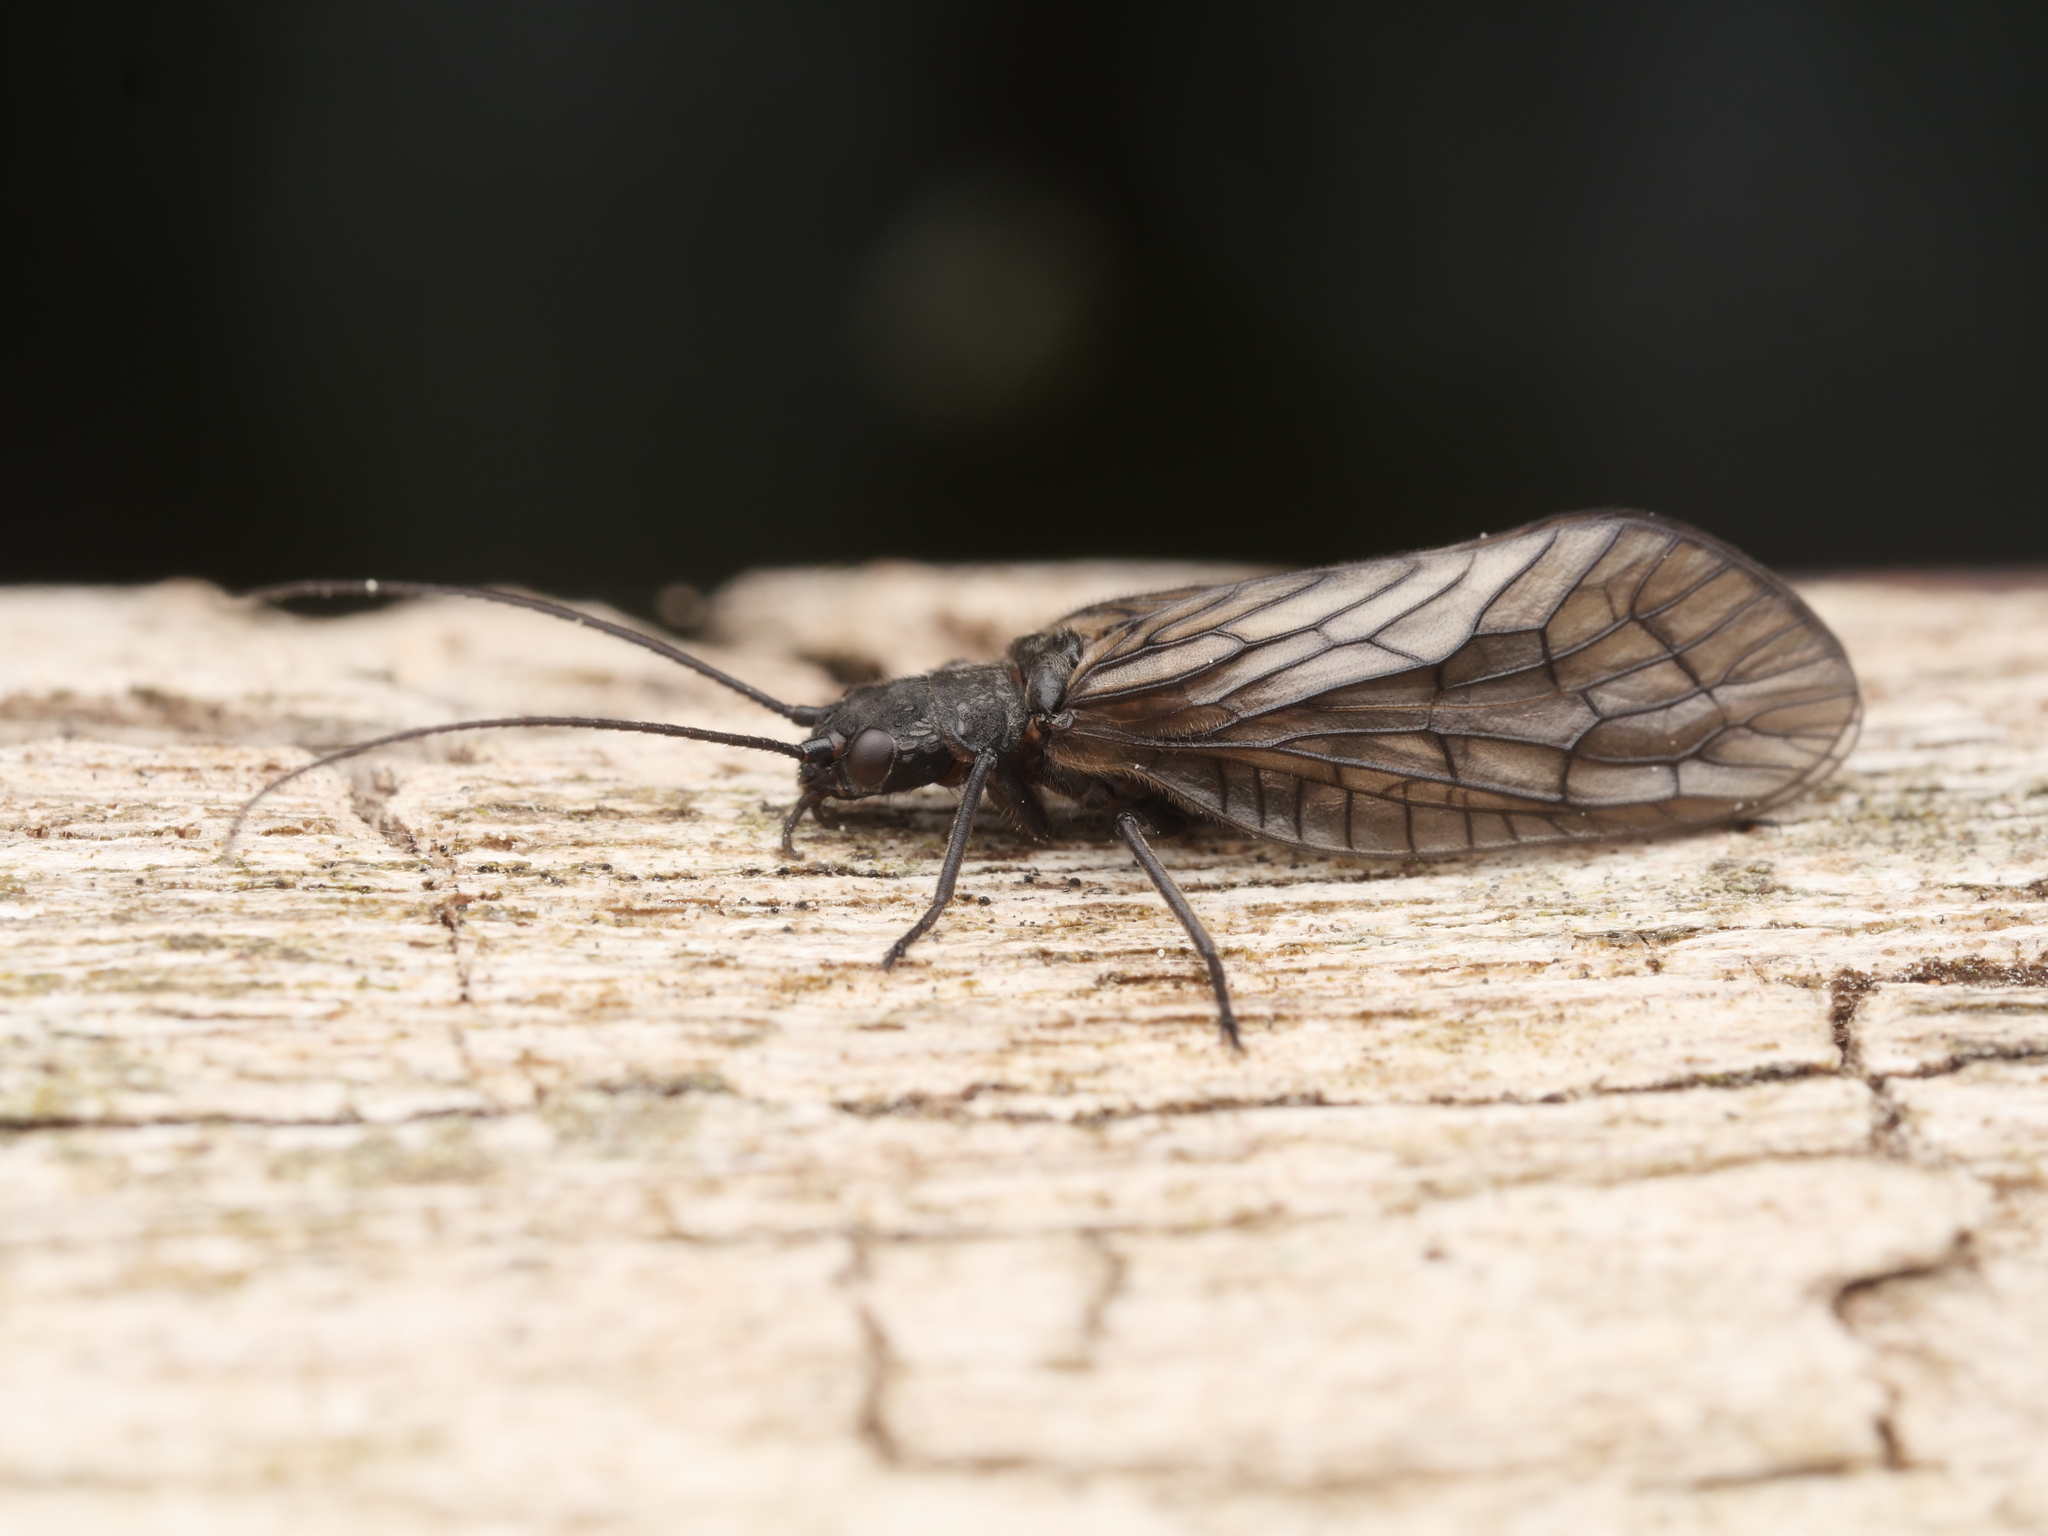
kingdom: Animalia
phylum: Arthropoda
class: Insecta
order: Megaloptera
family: Sialidae
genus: Sialis
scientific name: Sialis
